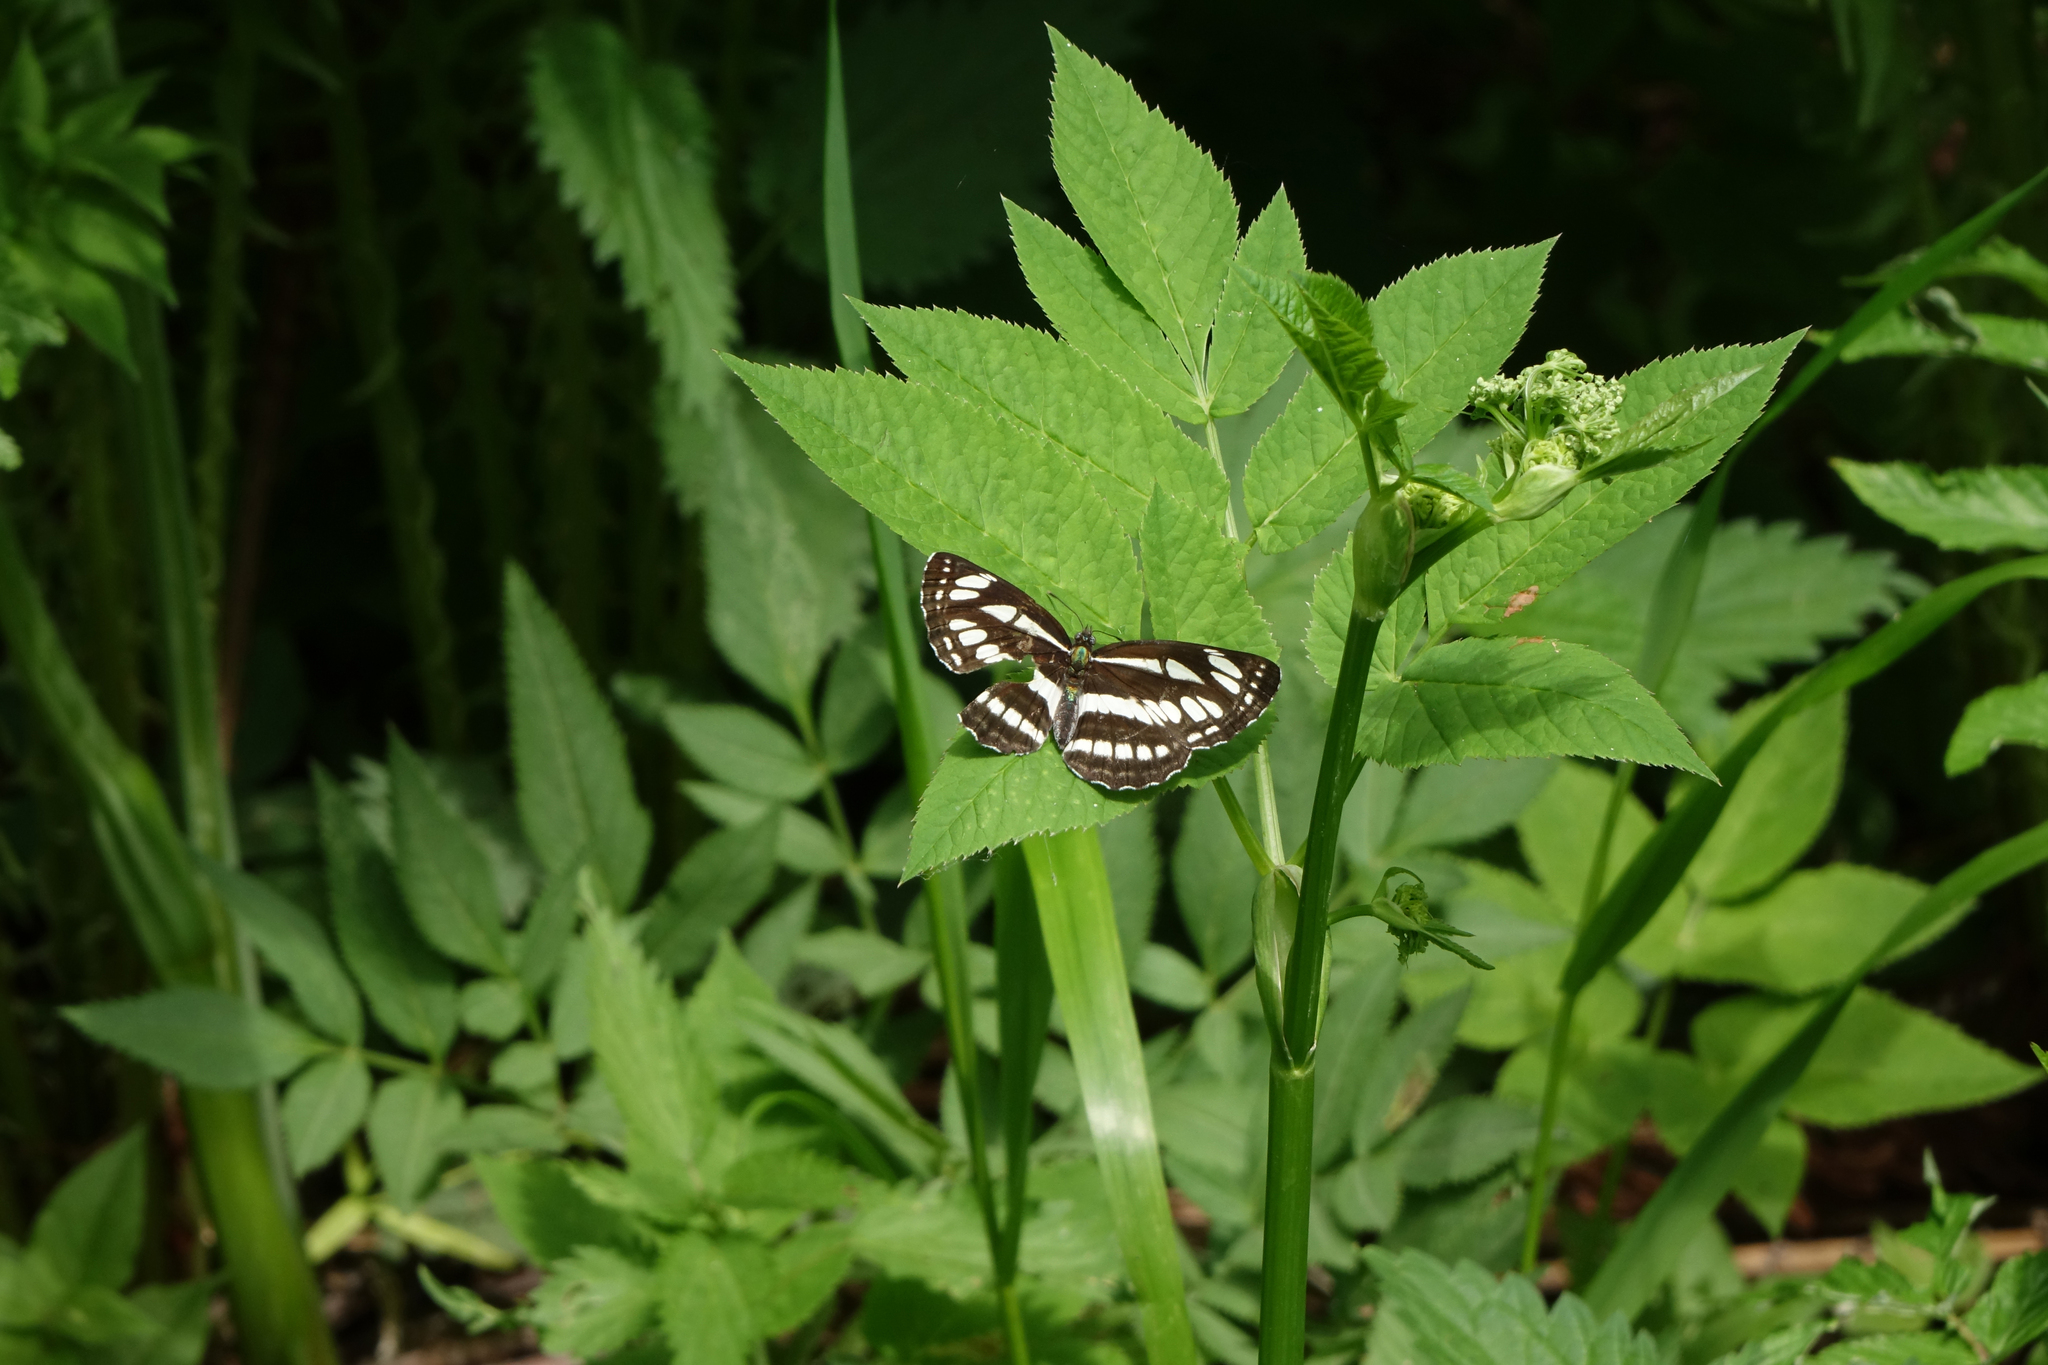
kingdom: Plantae
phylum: Tracheophyta
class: Magnoliopsida
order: Apiales
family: Apiaceae
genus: Aegopodium
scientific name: Aegopodium podagraria
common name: Ground-elder
